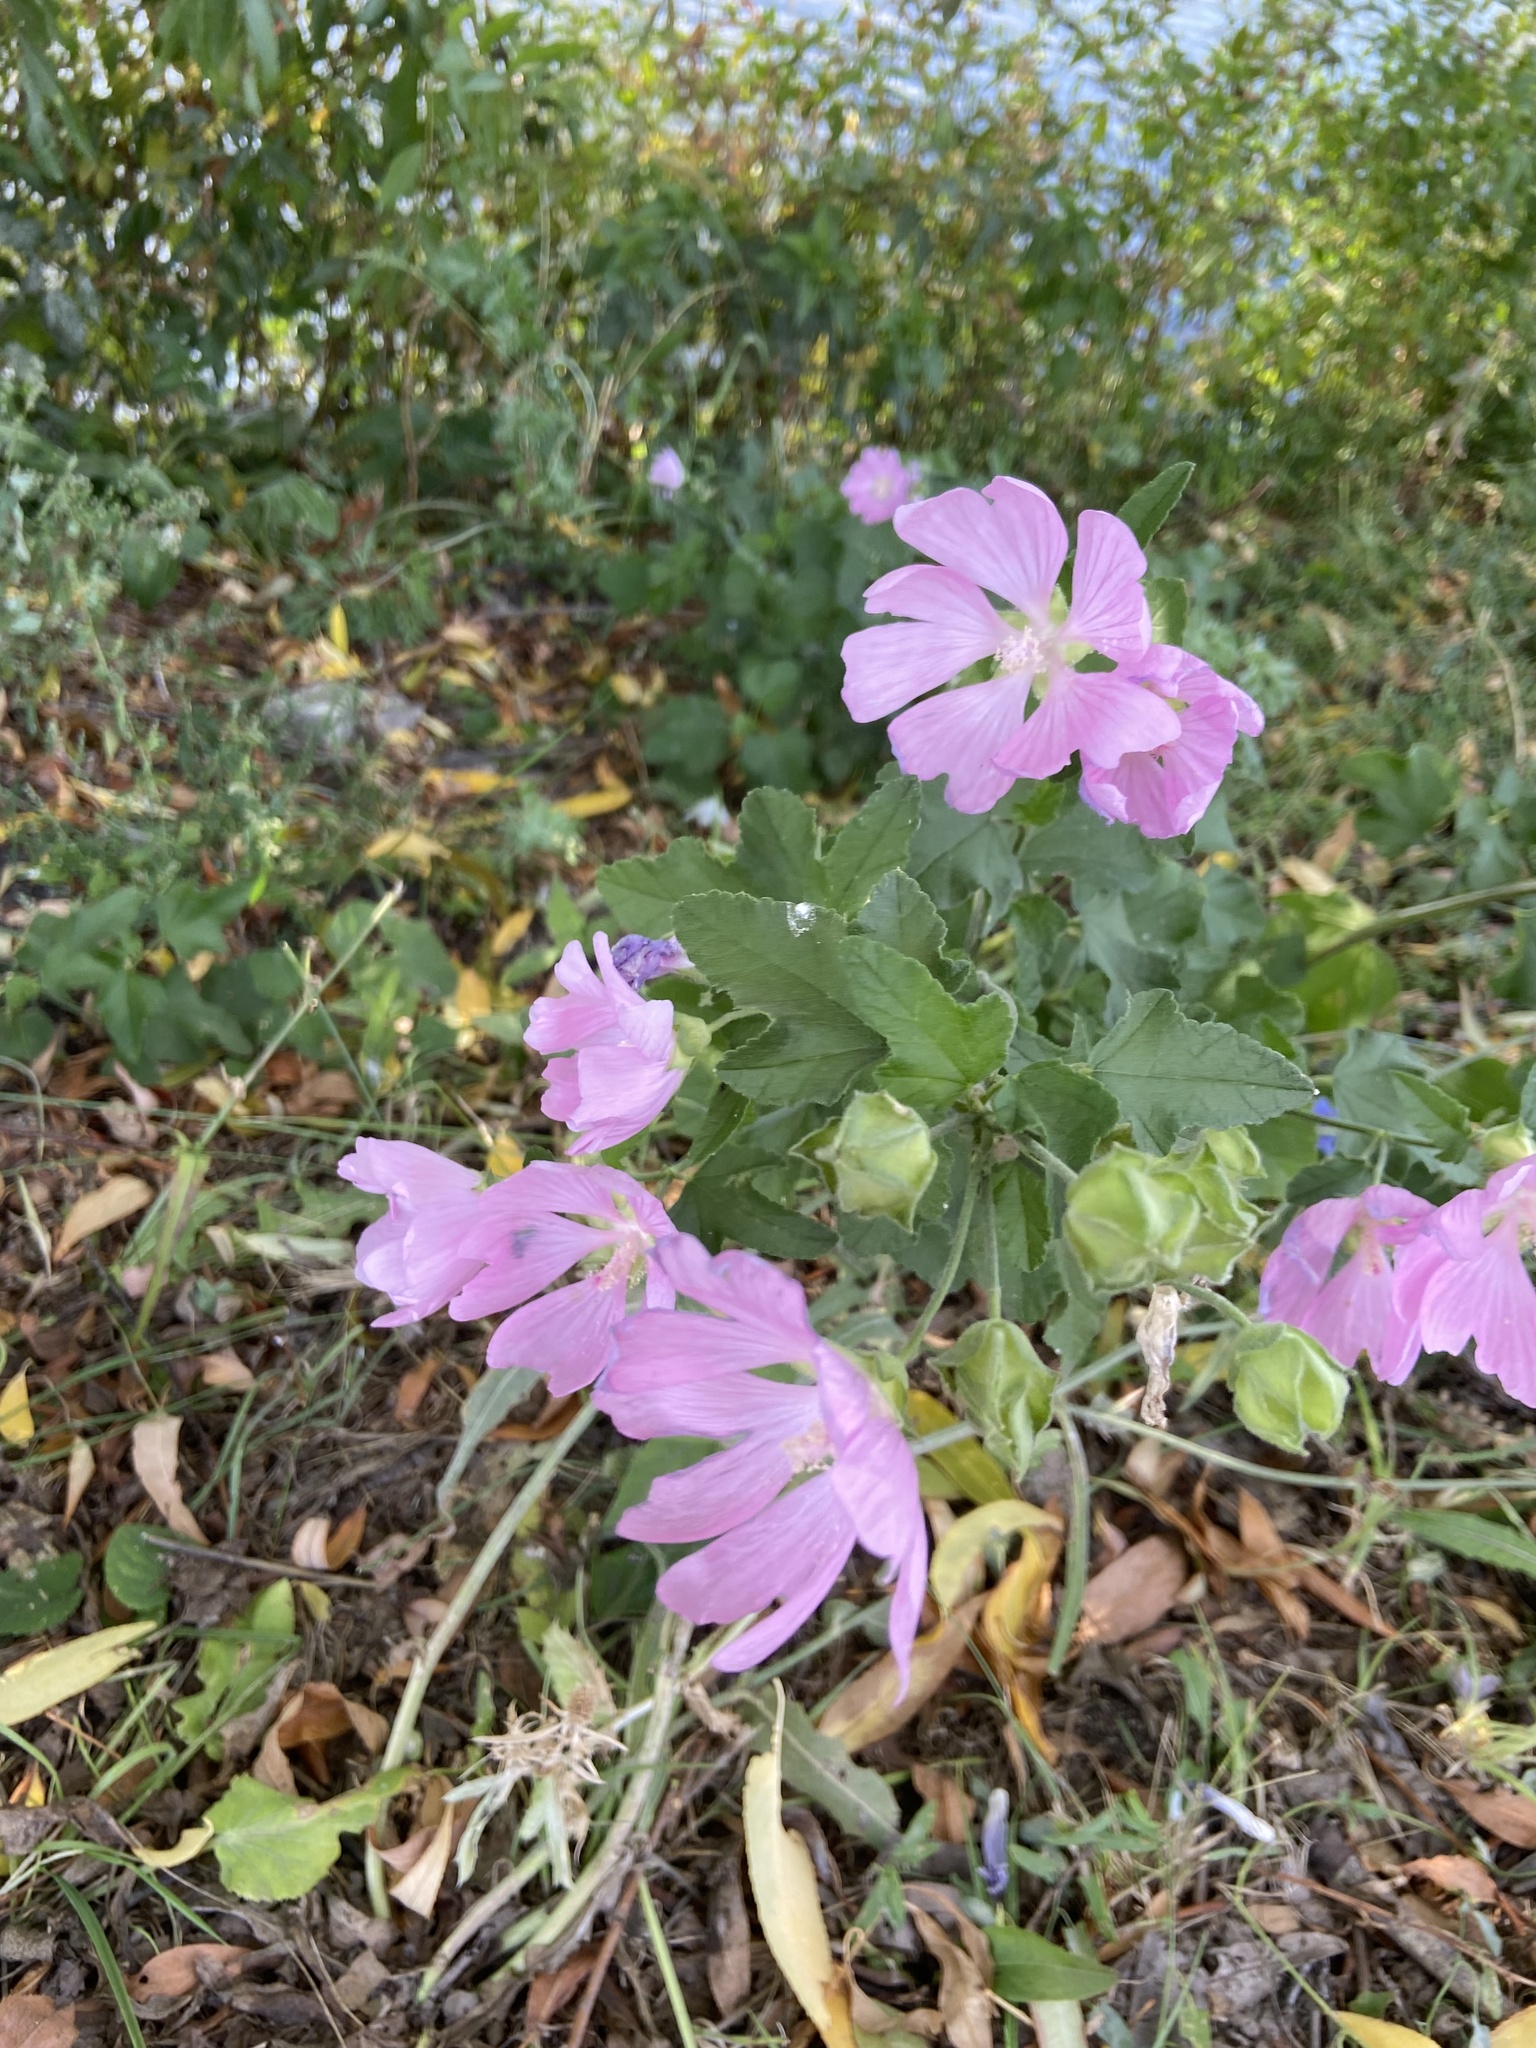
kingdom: Plantae
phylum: Tracheophyta
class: Magnoliopsida
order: Malvales
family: Malvaceae
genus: Malva
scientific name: Malva thuringiaca
